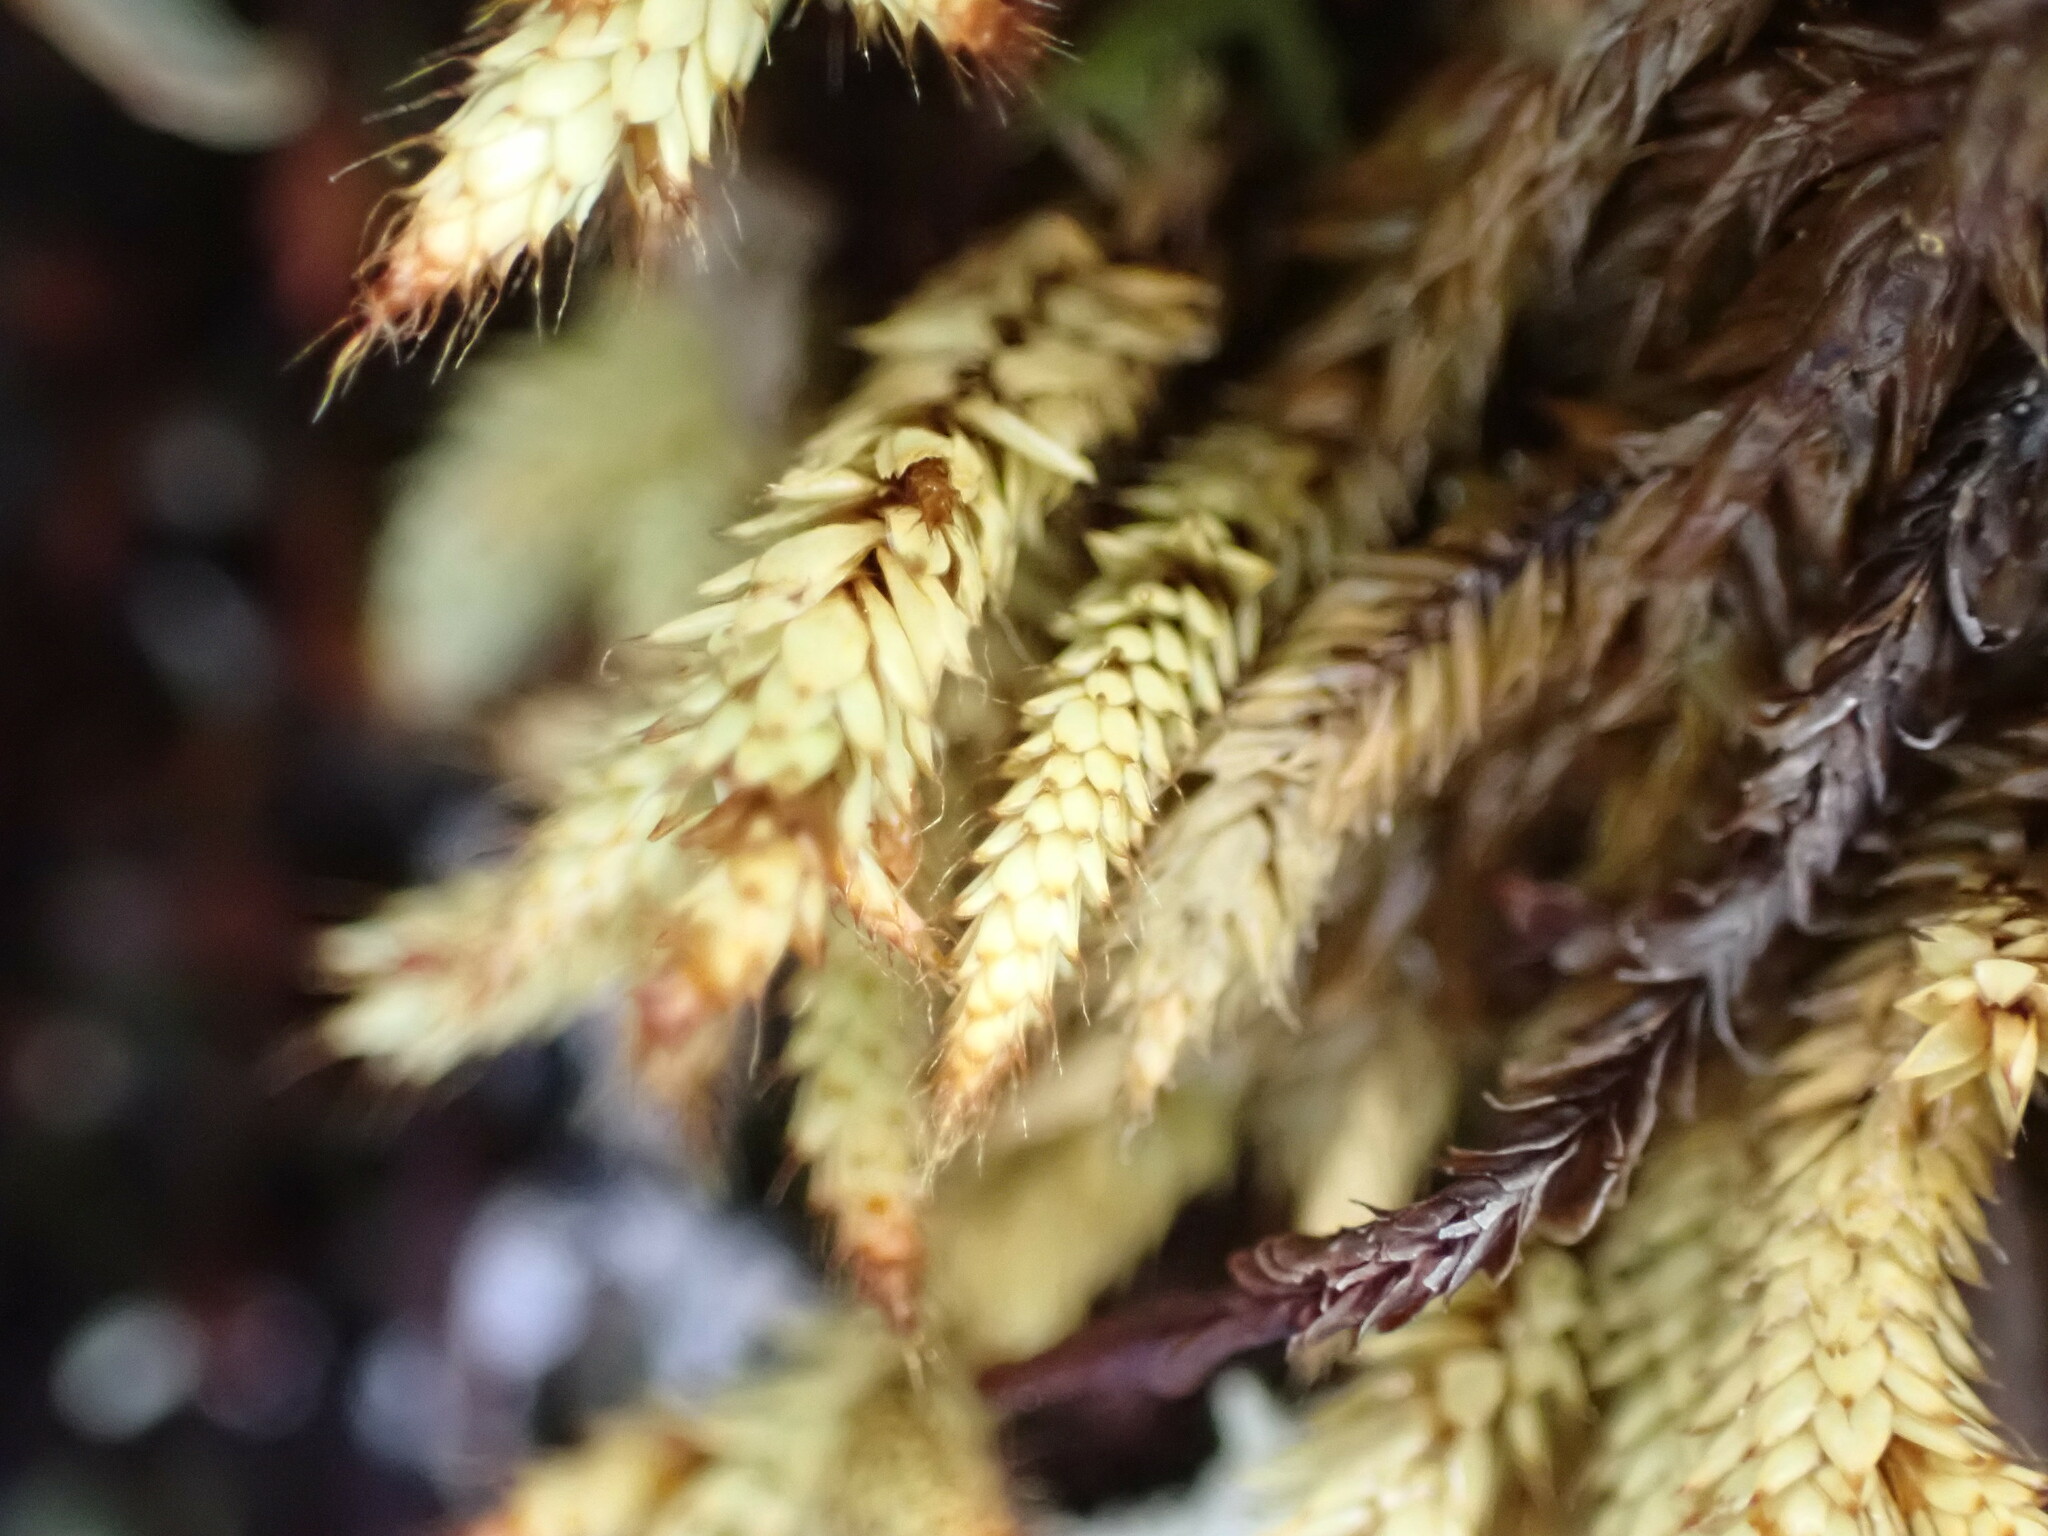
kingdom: Plantae
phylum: Bryophyta
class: Bryopsida
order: Hedwigiales
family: Hedwigiaceae
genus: Rhacocarpus
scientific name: Rhacocarpus purpurascens
